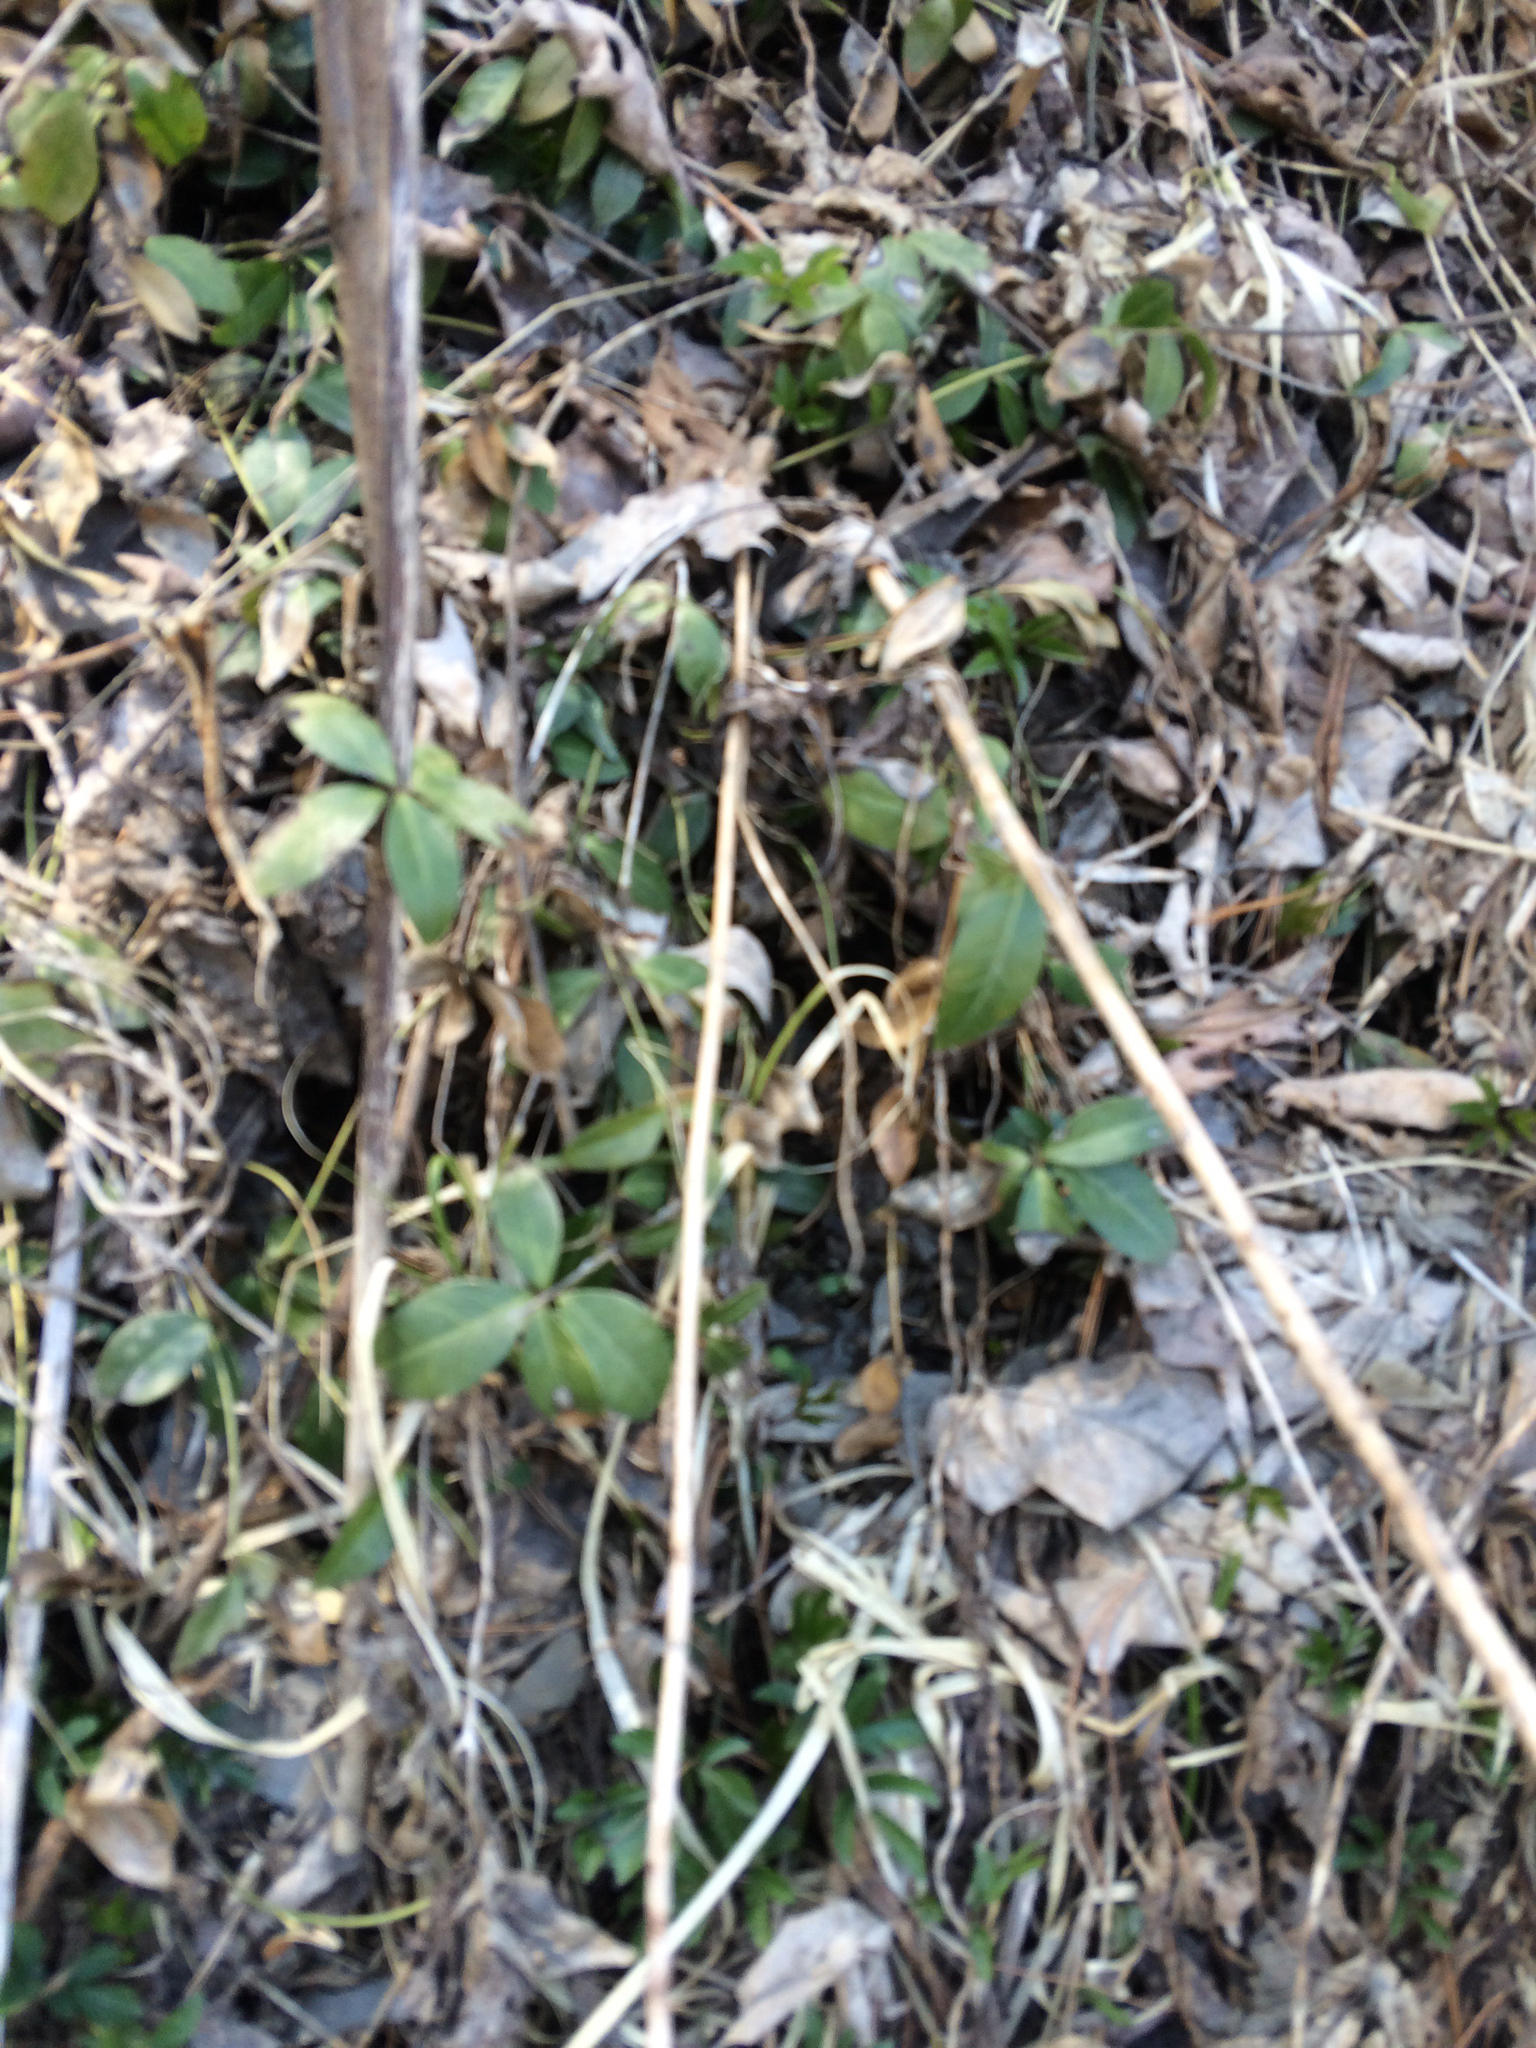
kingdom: Plantae
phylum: Tracheophyta
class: Magnoliopsida
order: Gentianales
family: Apocynaceae
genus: Vinca
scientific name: Vinca minor
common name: Lesser periwinkle
